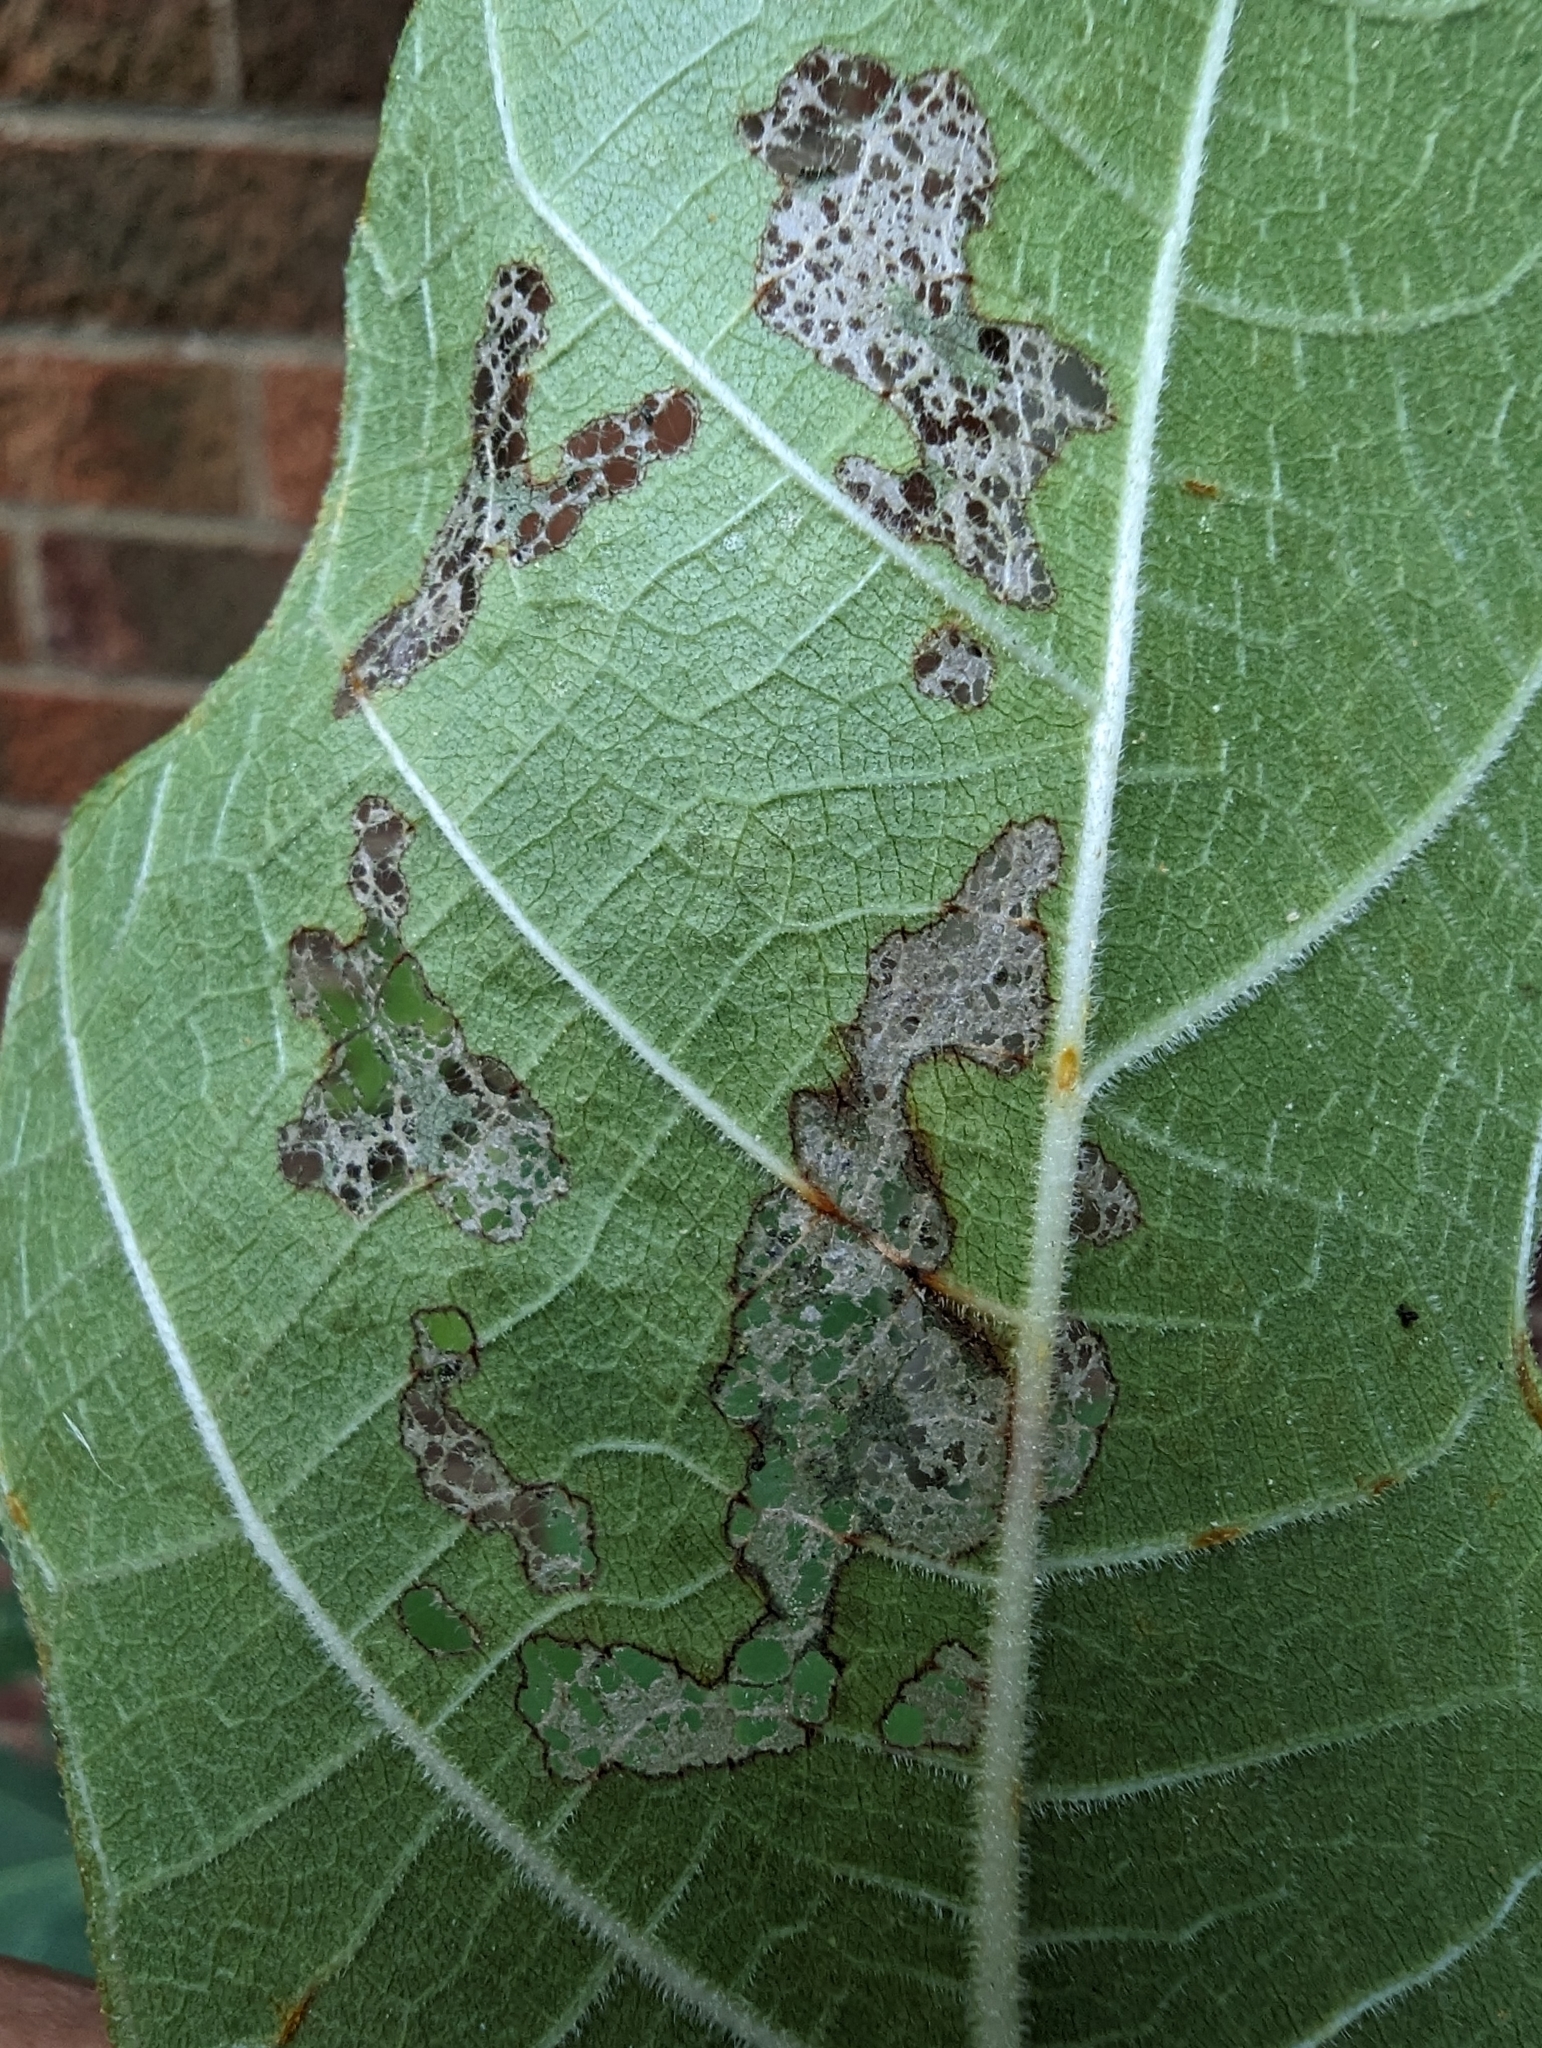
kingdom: Animalia
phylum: Arthropoda
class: Insecta
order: Lepidoptera
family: Choreutidae
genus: Anthophila
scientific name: Anthophila nemorana
